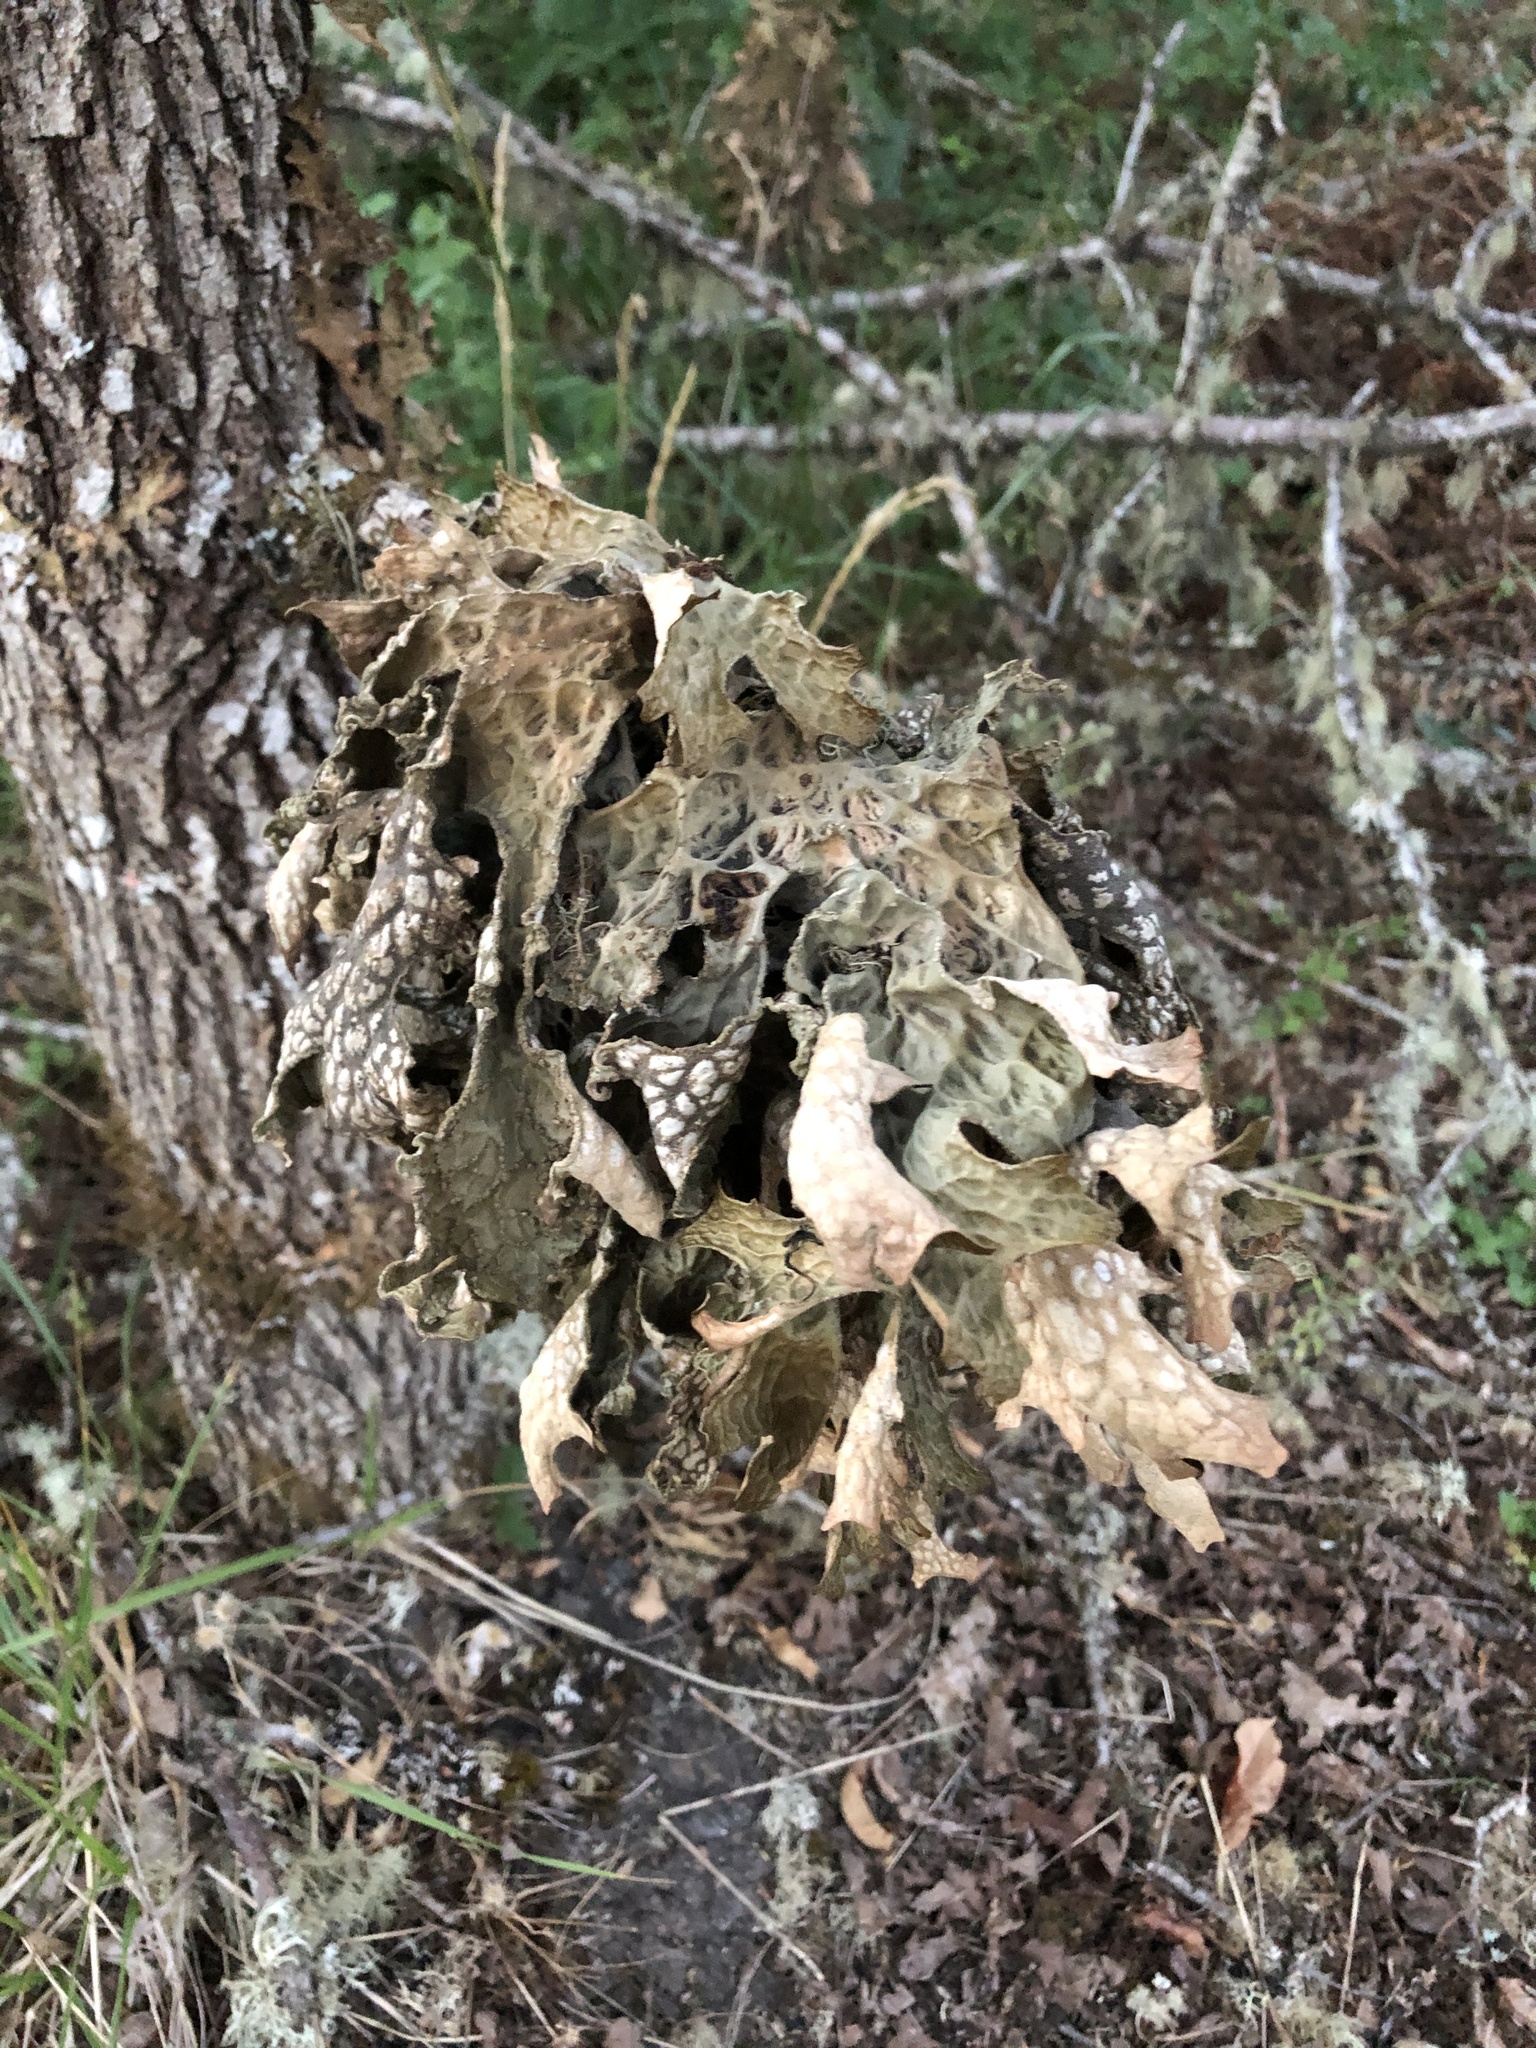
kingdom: Fungi
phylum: Ascomycota
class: Lecanoromycetes
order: Peltigerales
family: Lobariaceae
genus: Lobaria
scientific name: Lobaria pulmonaria
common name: Lungwort
